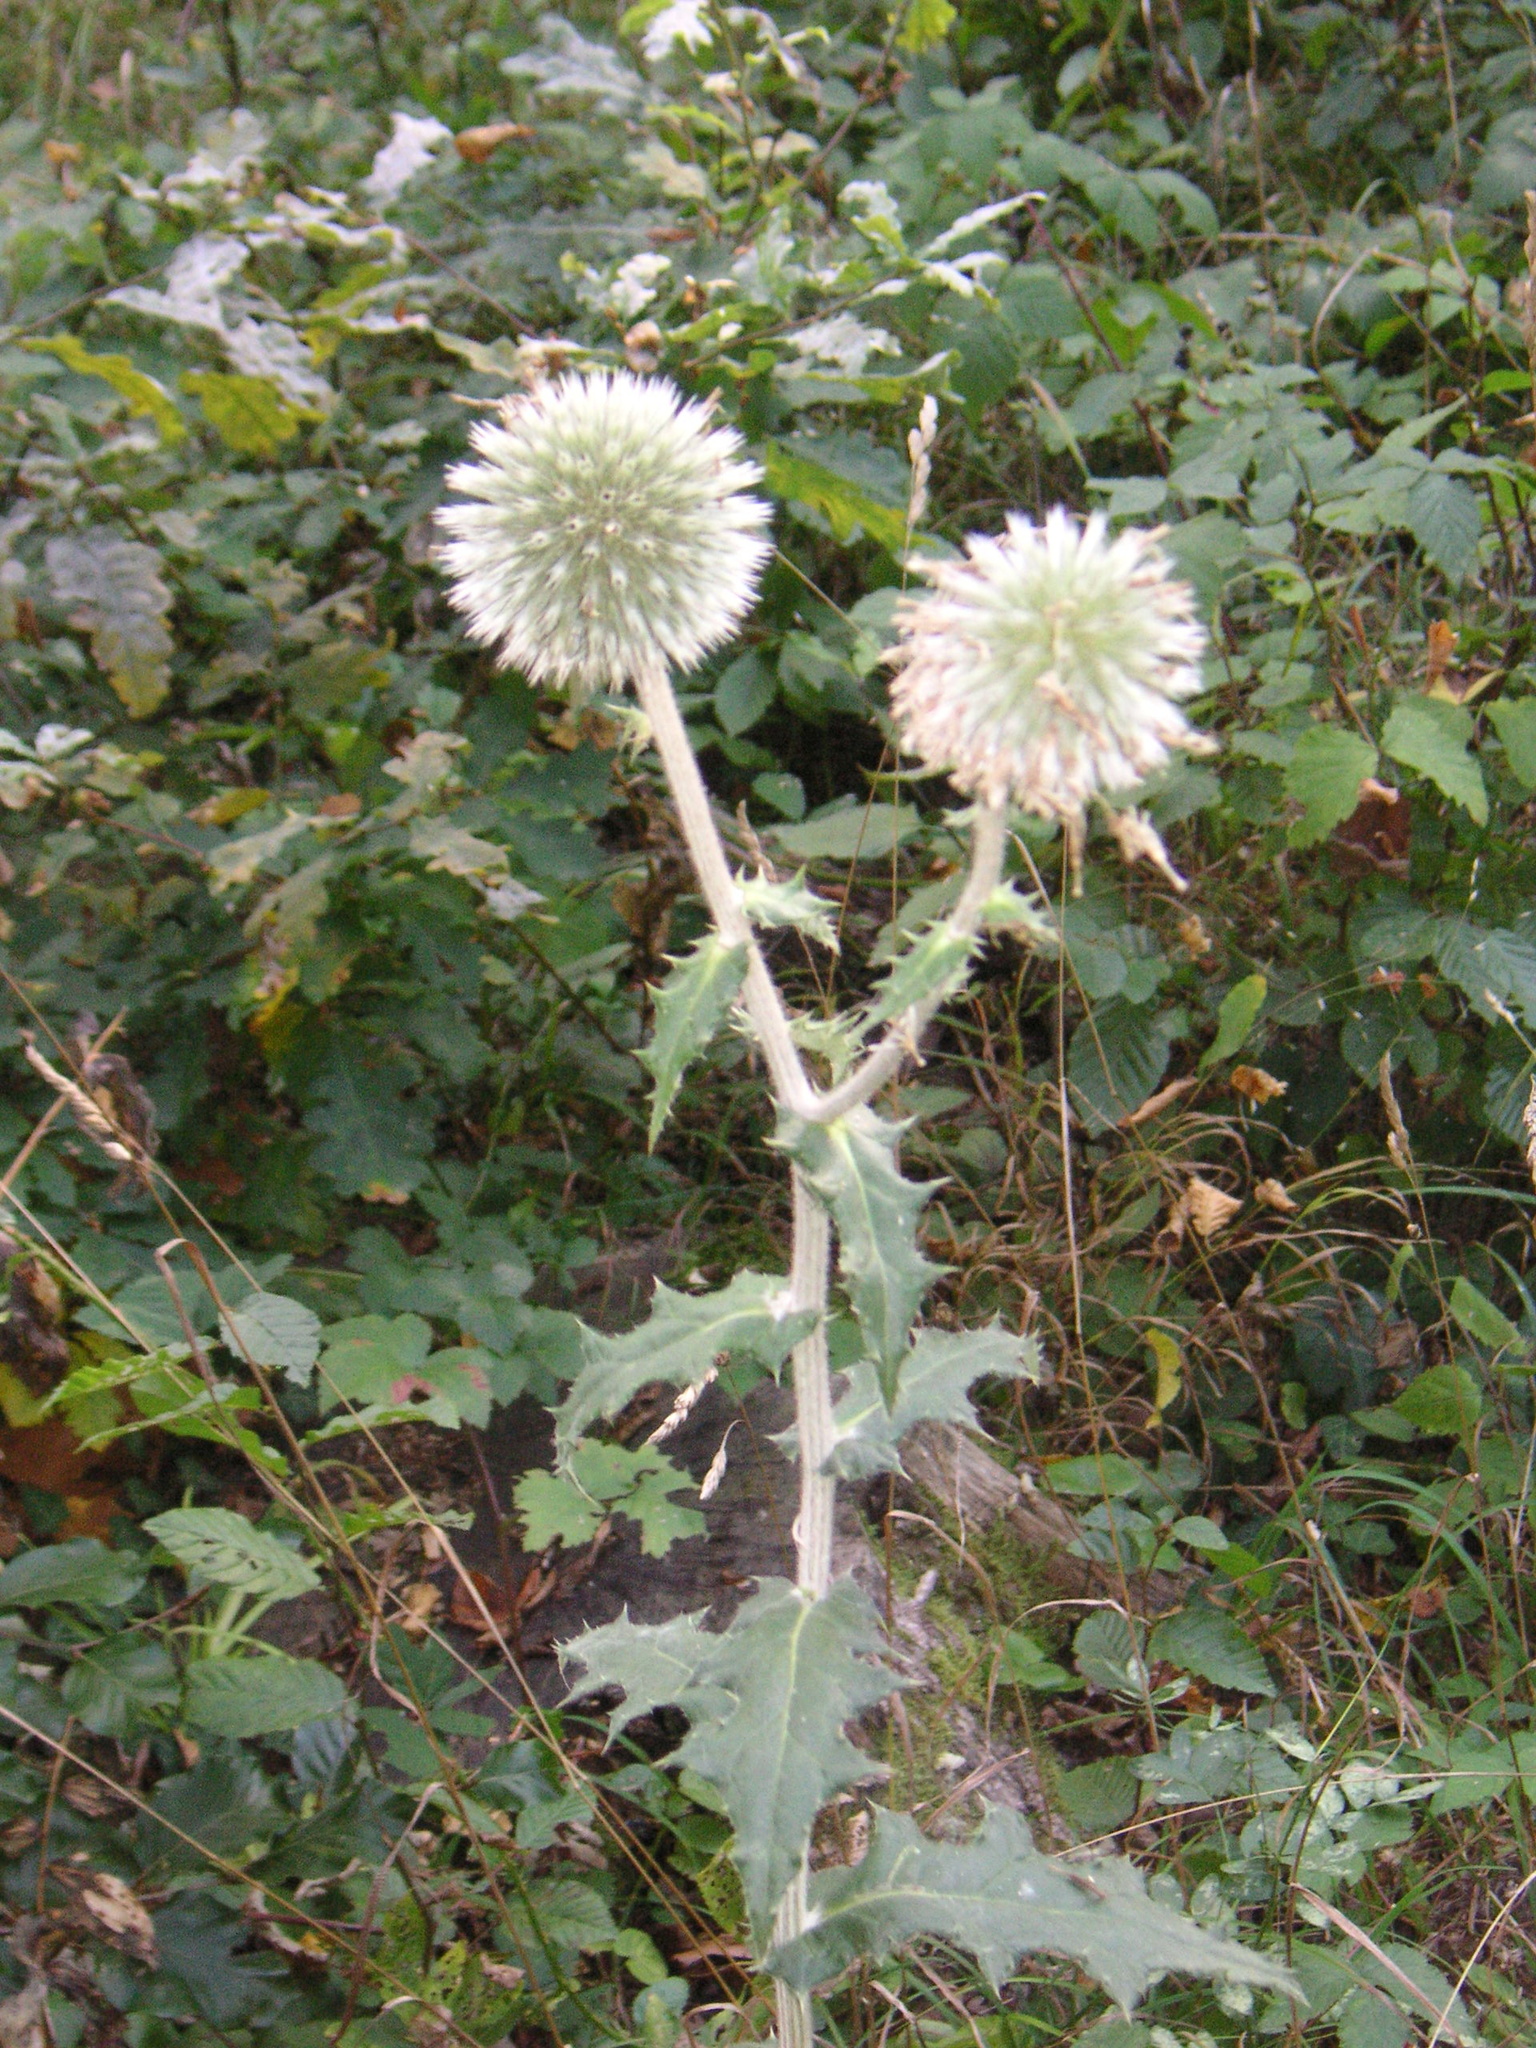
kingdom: Plantae
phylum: Tracheophyta
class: Magnoliopsida
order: Asterales
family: Asteraceae
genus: Echinops
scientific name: Echinops sphaerocephalus
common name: Glandular globe-thistle
